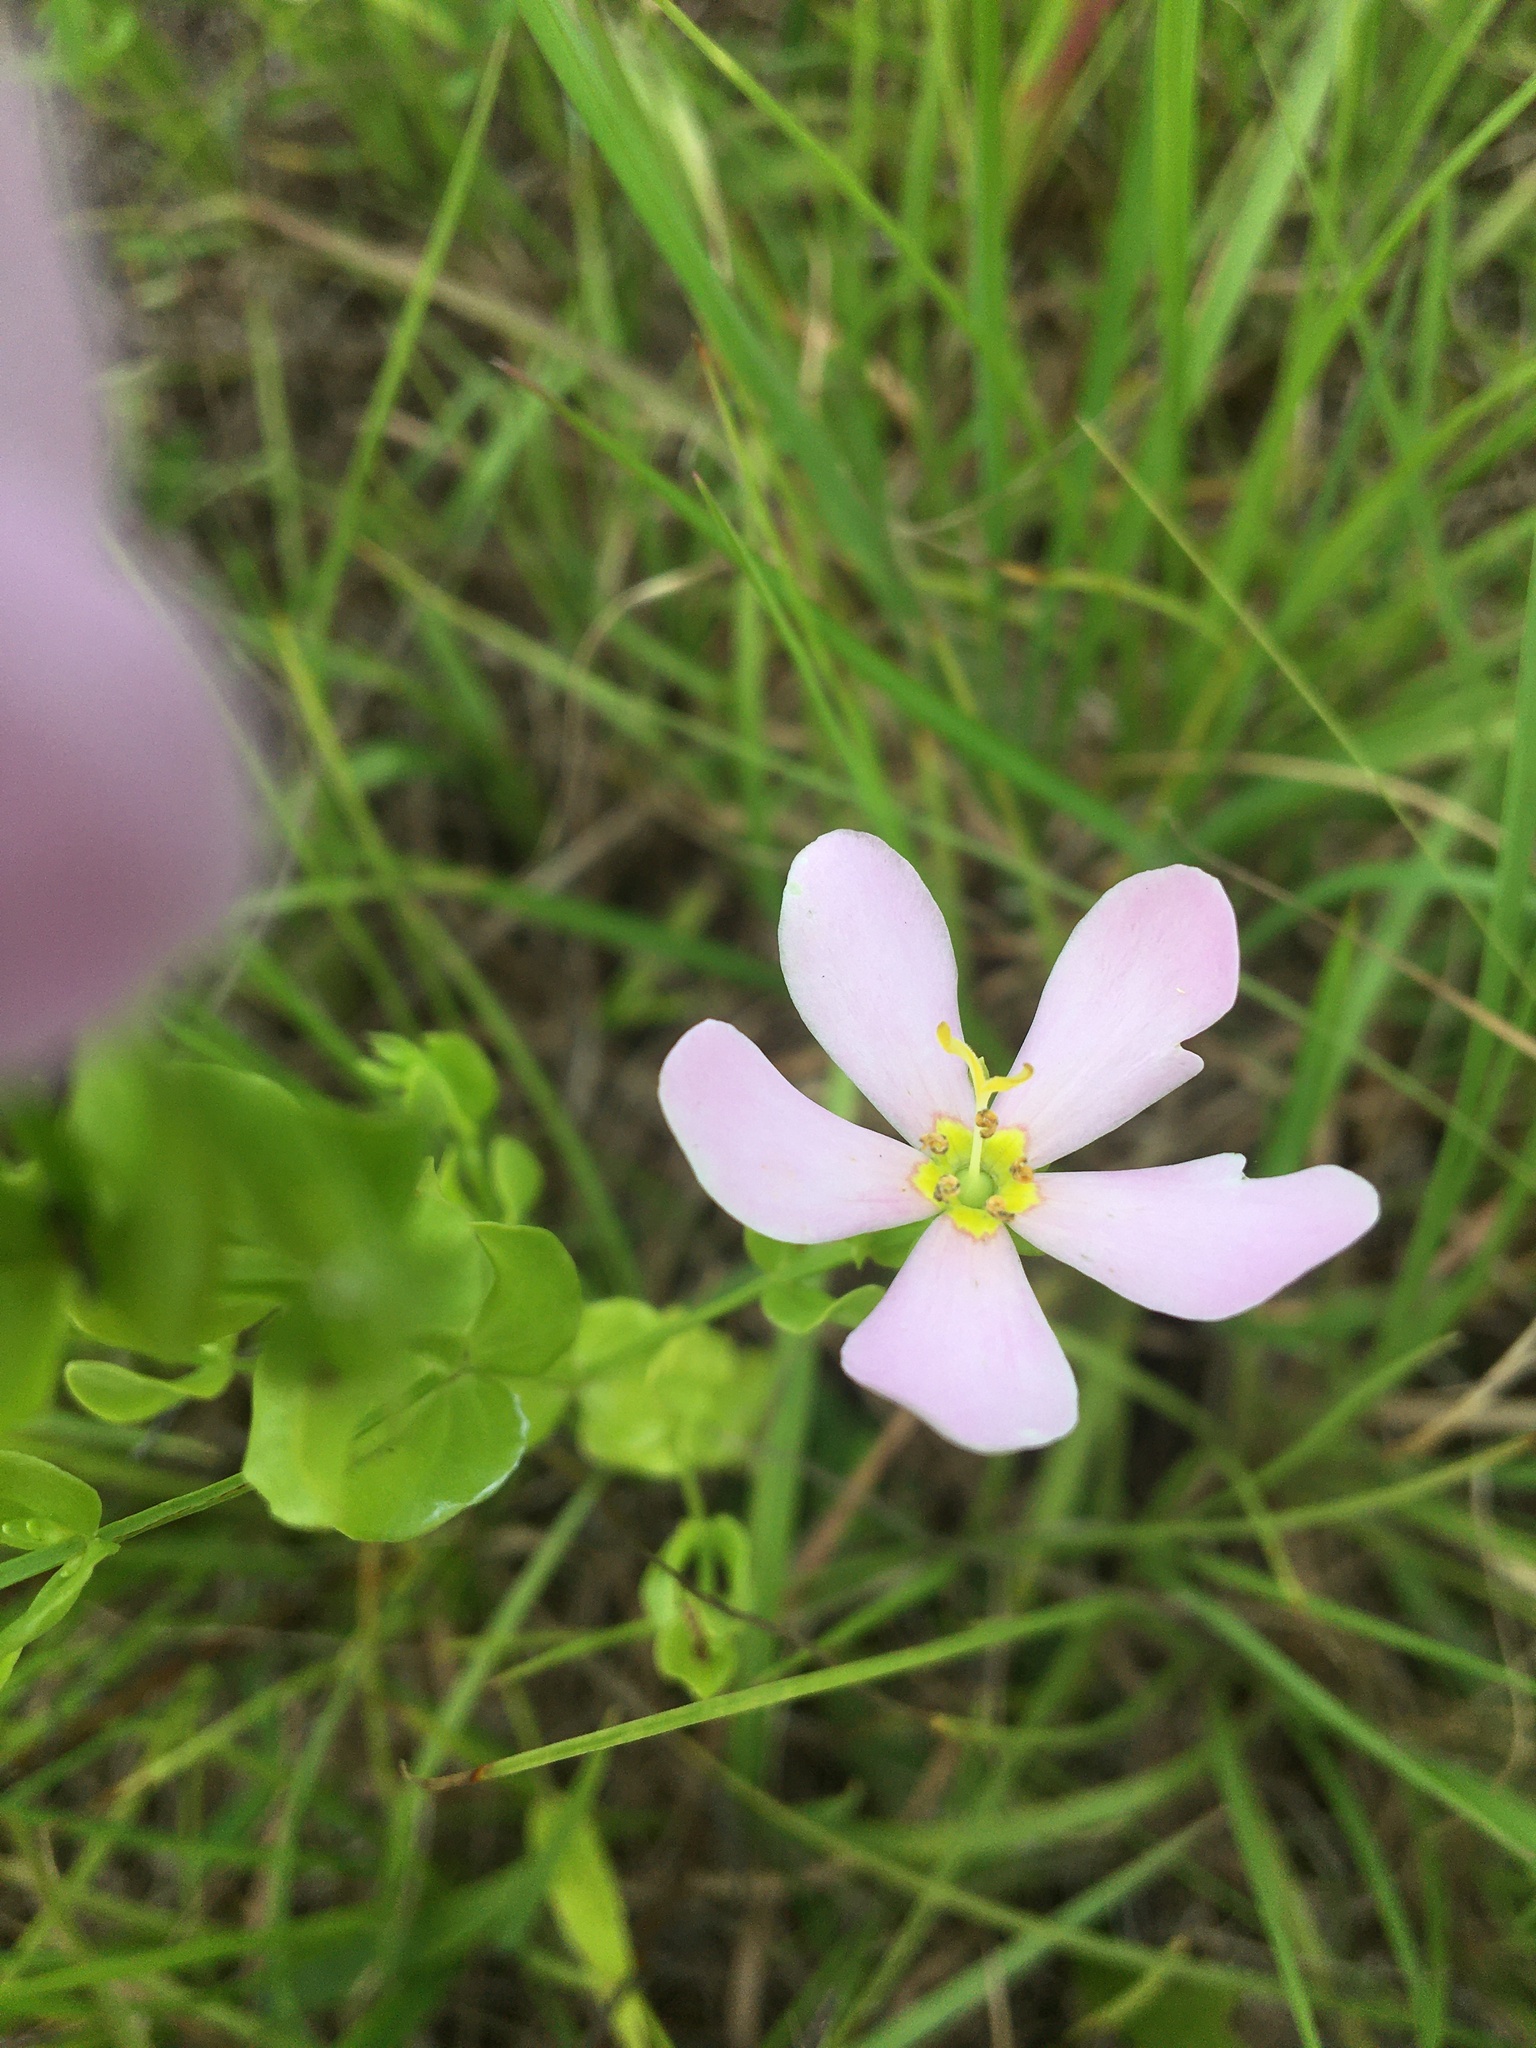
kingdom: Plantae
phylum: Tracheophyta
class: Magnoliopsida
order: Gentianales
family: Gentianaceae
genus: Sabatia
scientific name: Sabatia angularis
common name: Rose-pink
